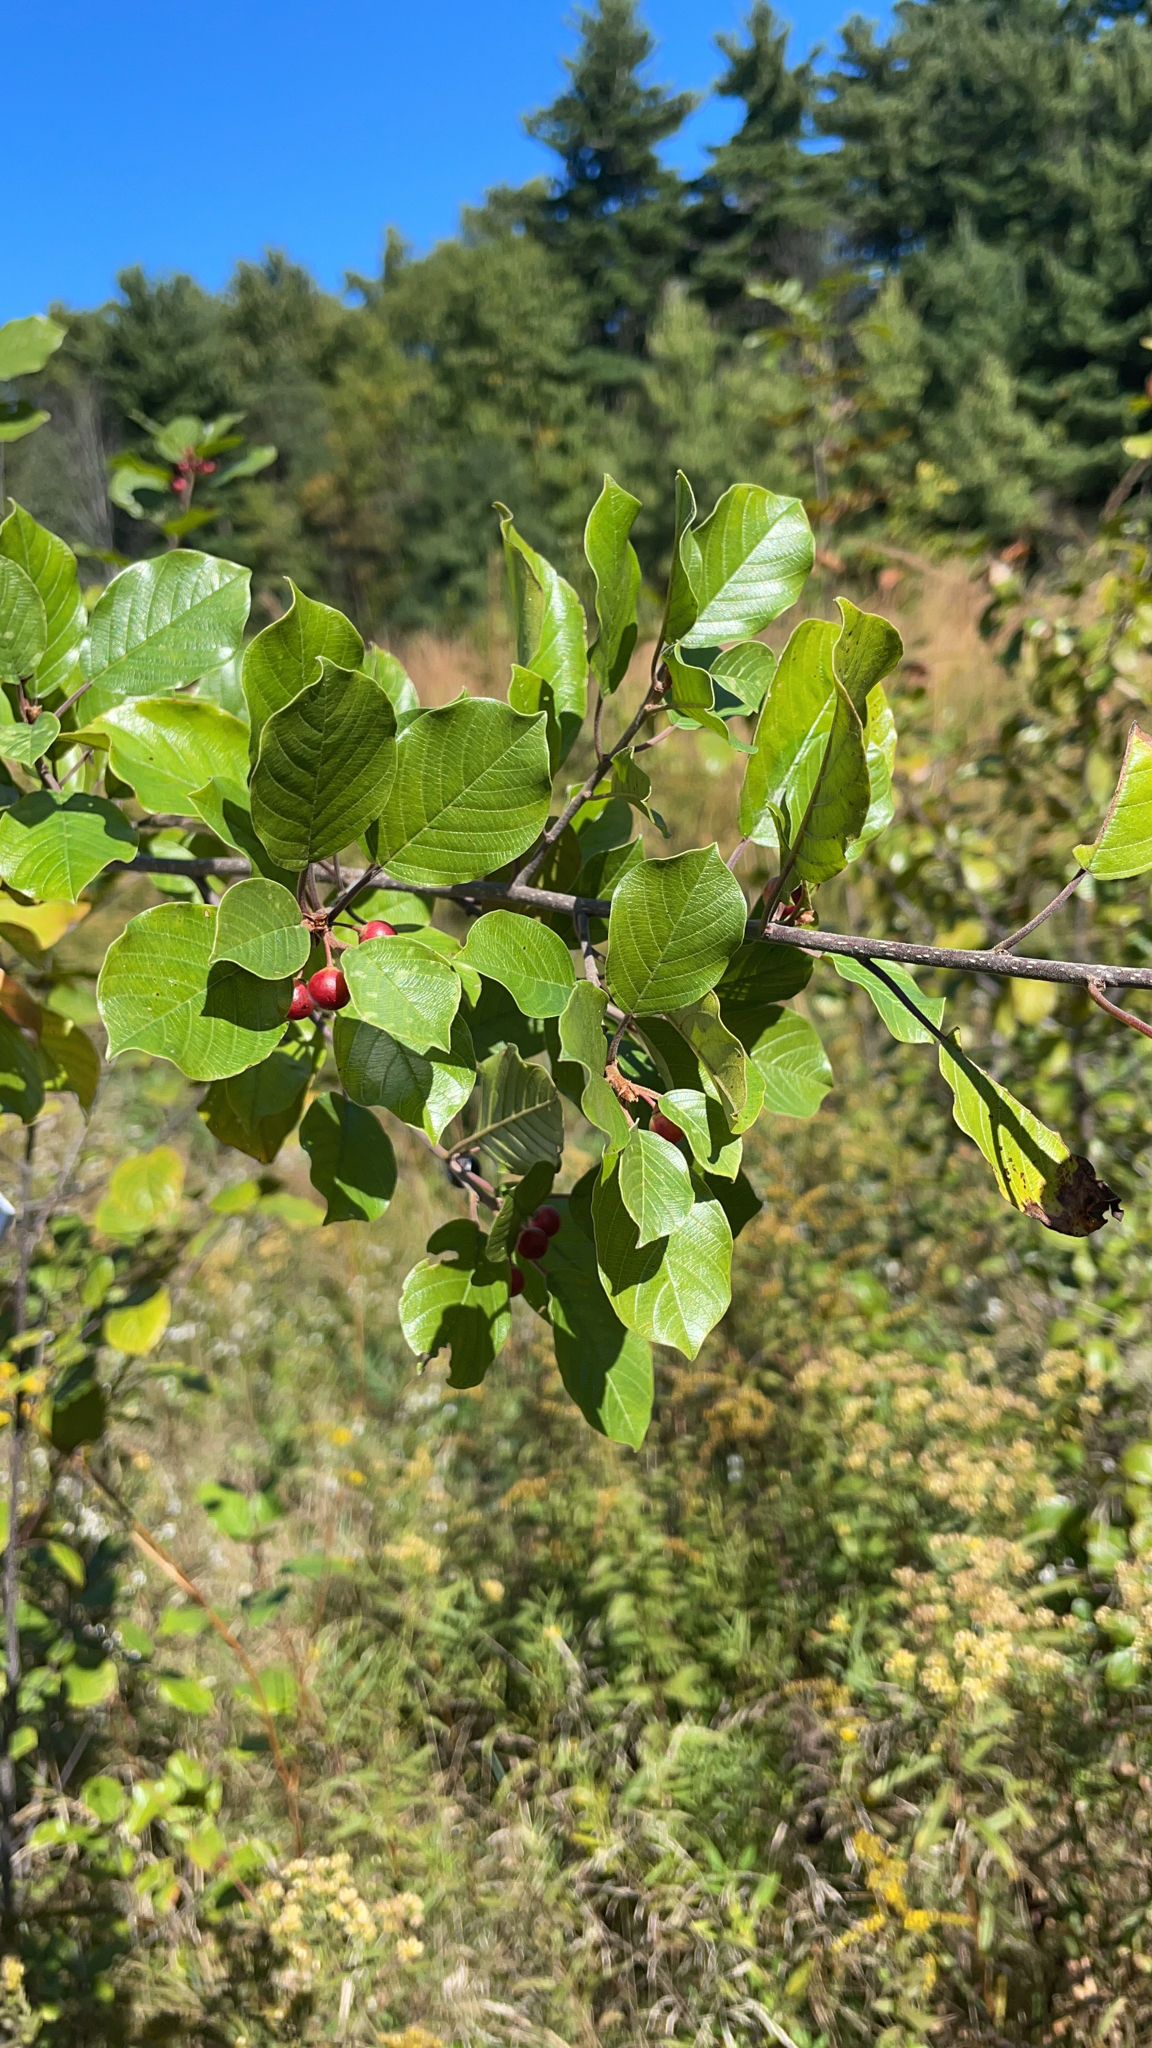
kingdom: Plantae
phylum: Tracheophyta
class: Magnoliopsida
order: Rosales
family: Rhamnaceae
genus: Frangula
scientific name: Frangula alnus
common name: Alder buckthorn
